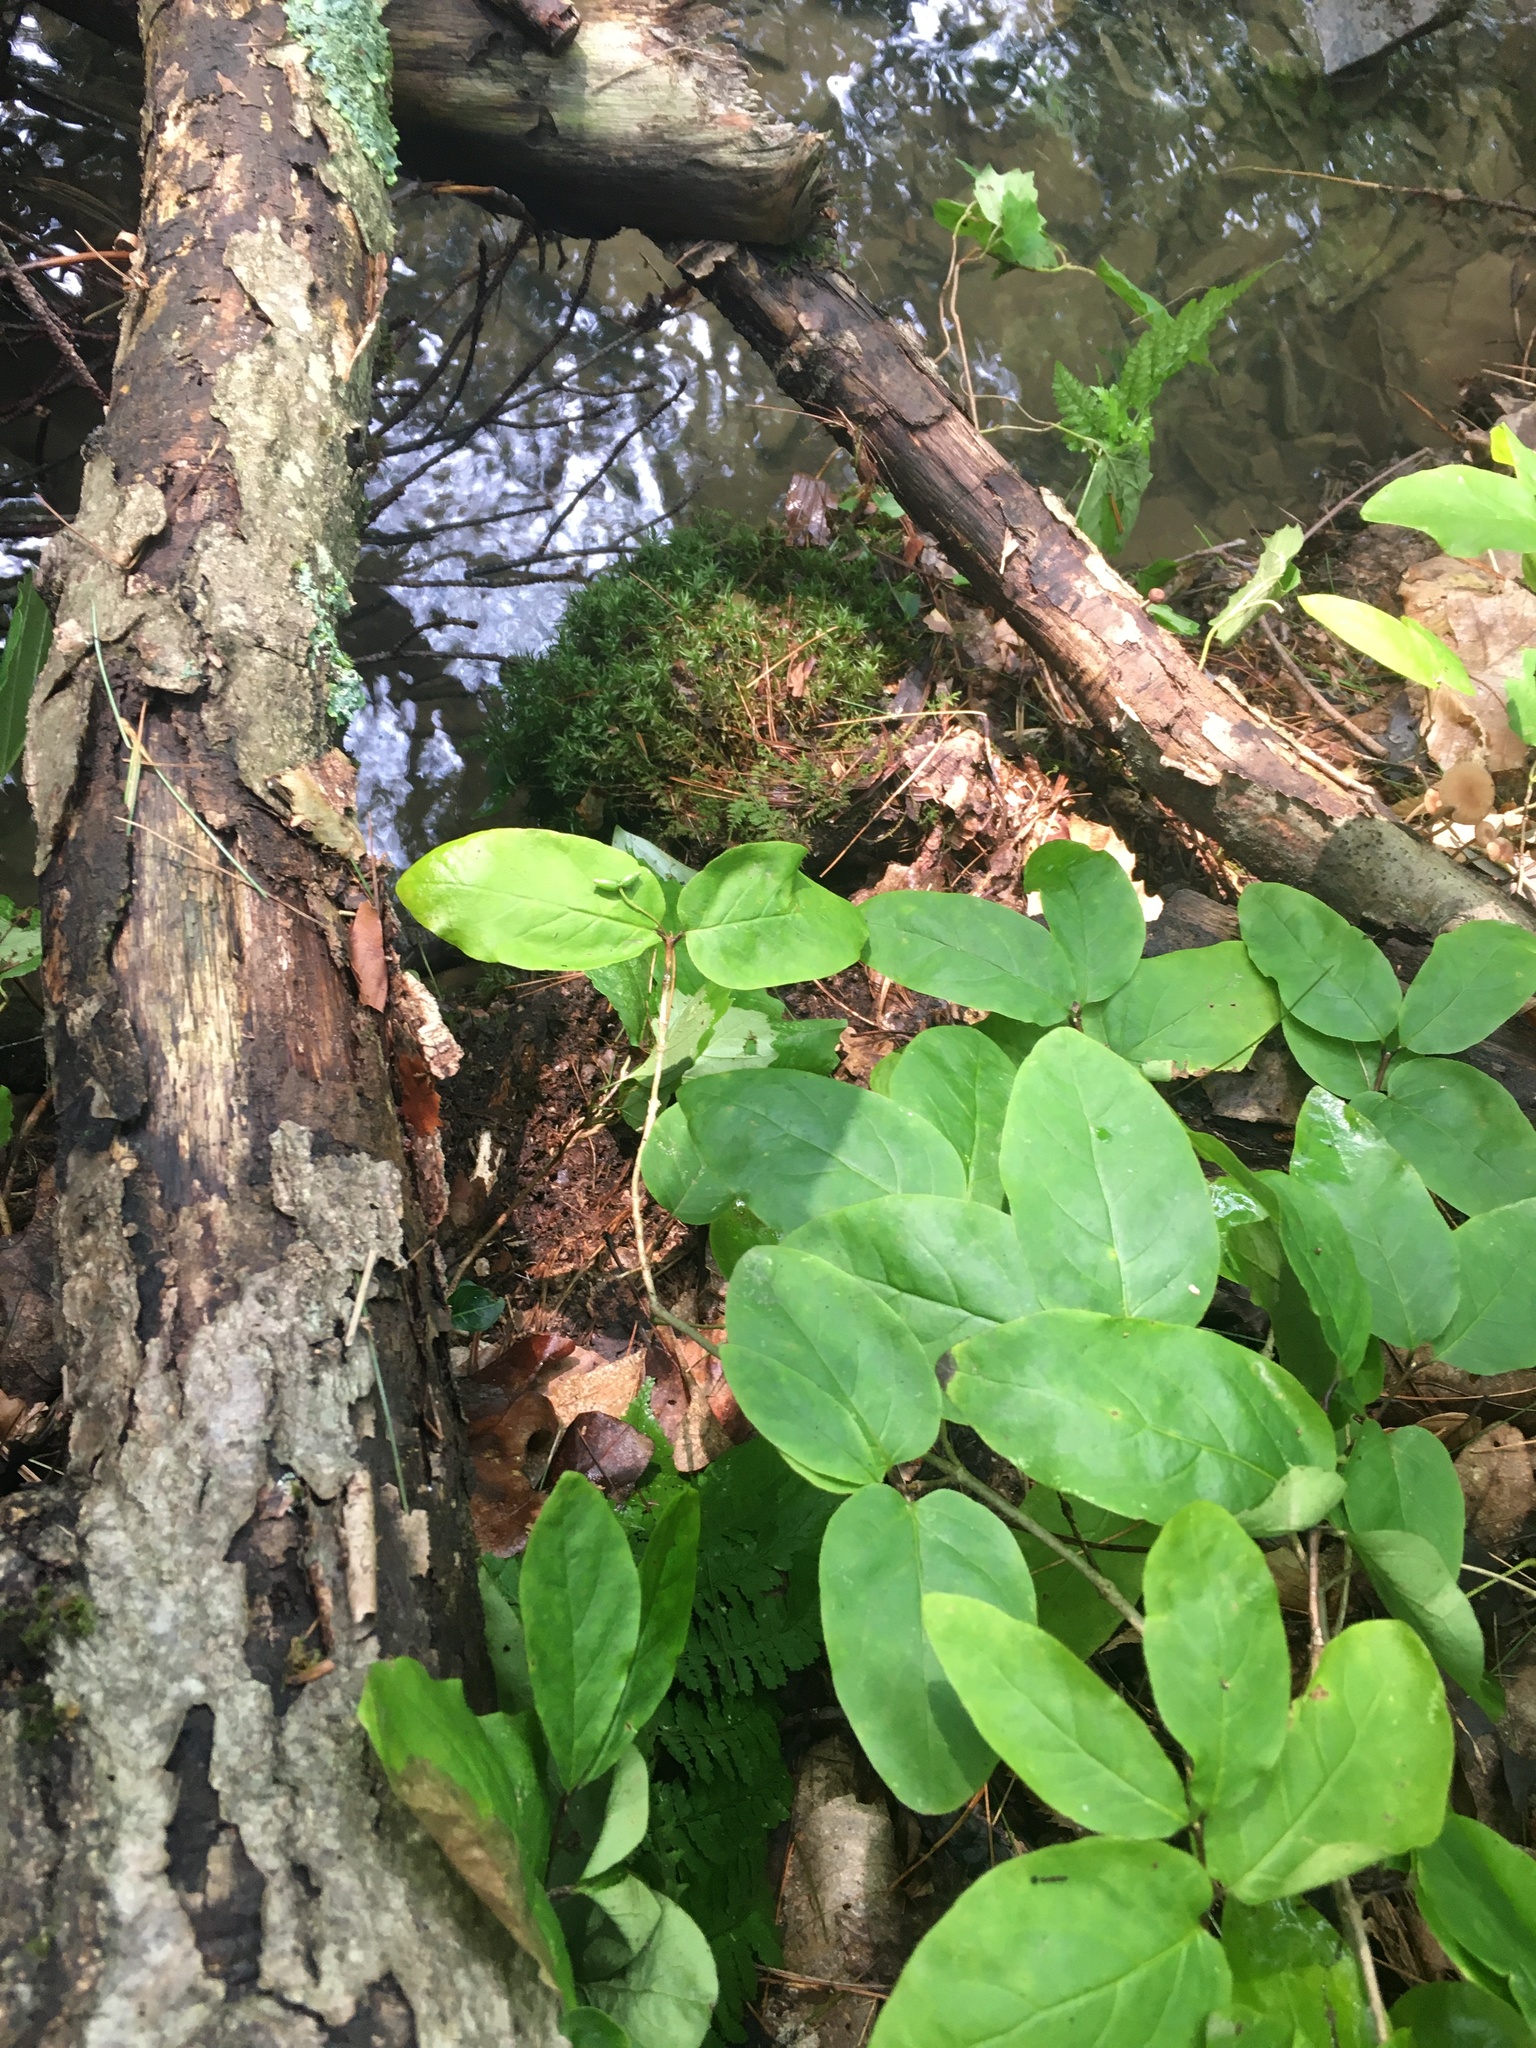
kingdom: Plantae
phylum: Tracheophyta
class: Magnoliopsida
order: Dipsacales
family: Caprifoliaceae
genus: Lonicera
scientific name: Lonicera canadensis
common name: American fly-honeysuckle
